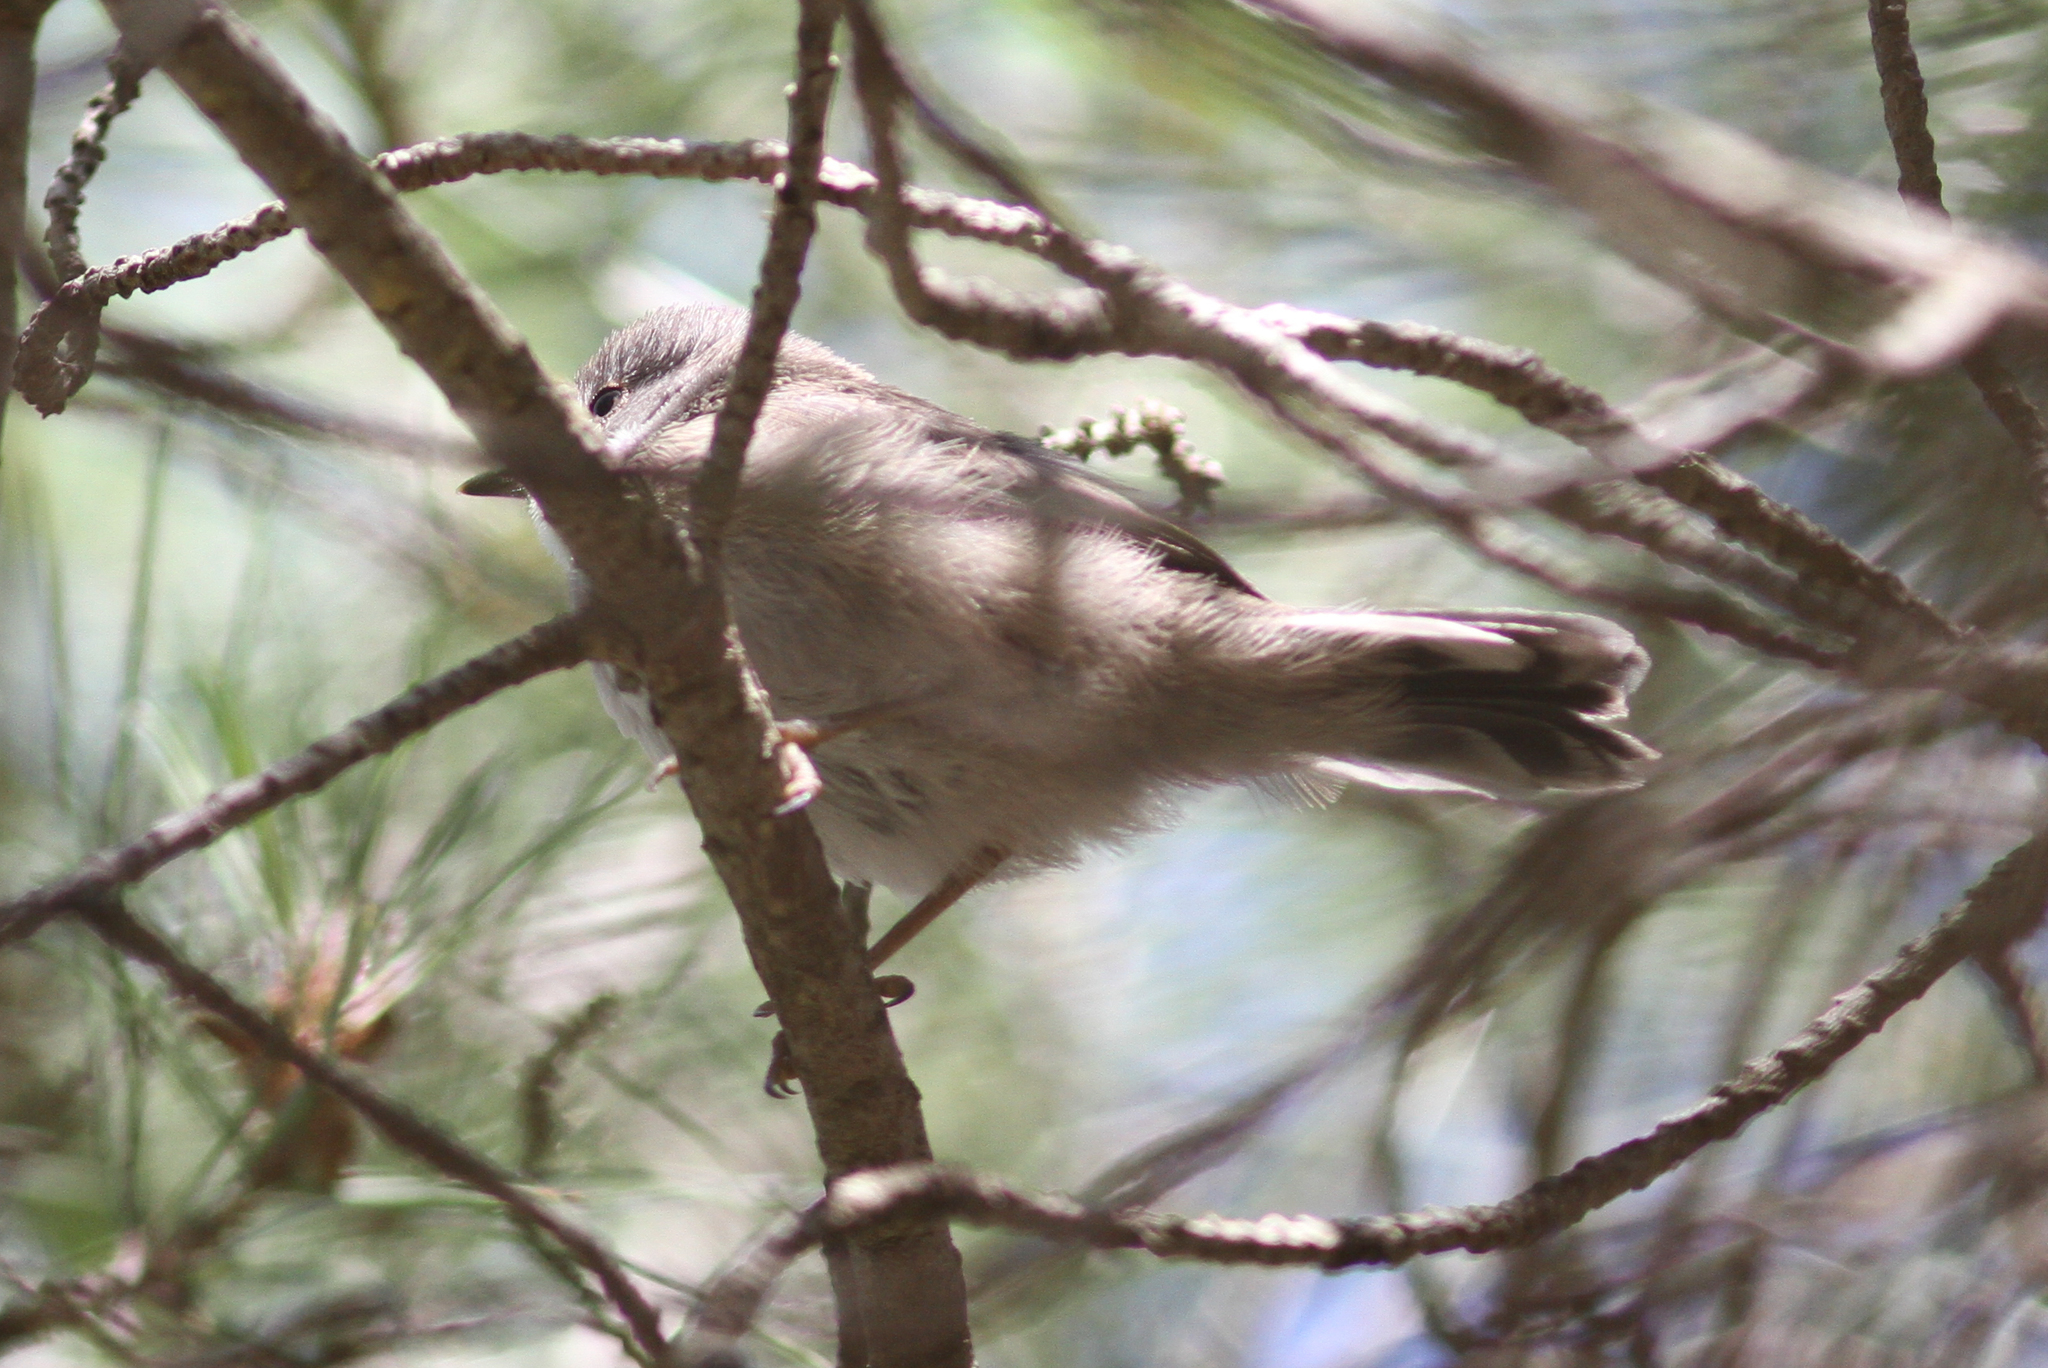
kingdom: Animalia
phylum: Chordata
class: Aves
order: Passeriformes
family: Sylviidae
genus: Curruca
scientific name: Curruca melanocephala
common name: Sardinian warbler
